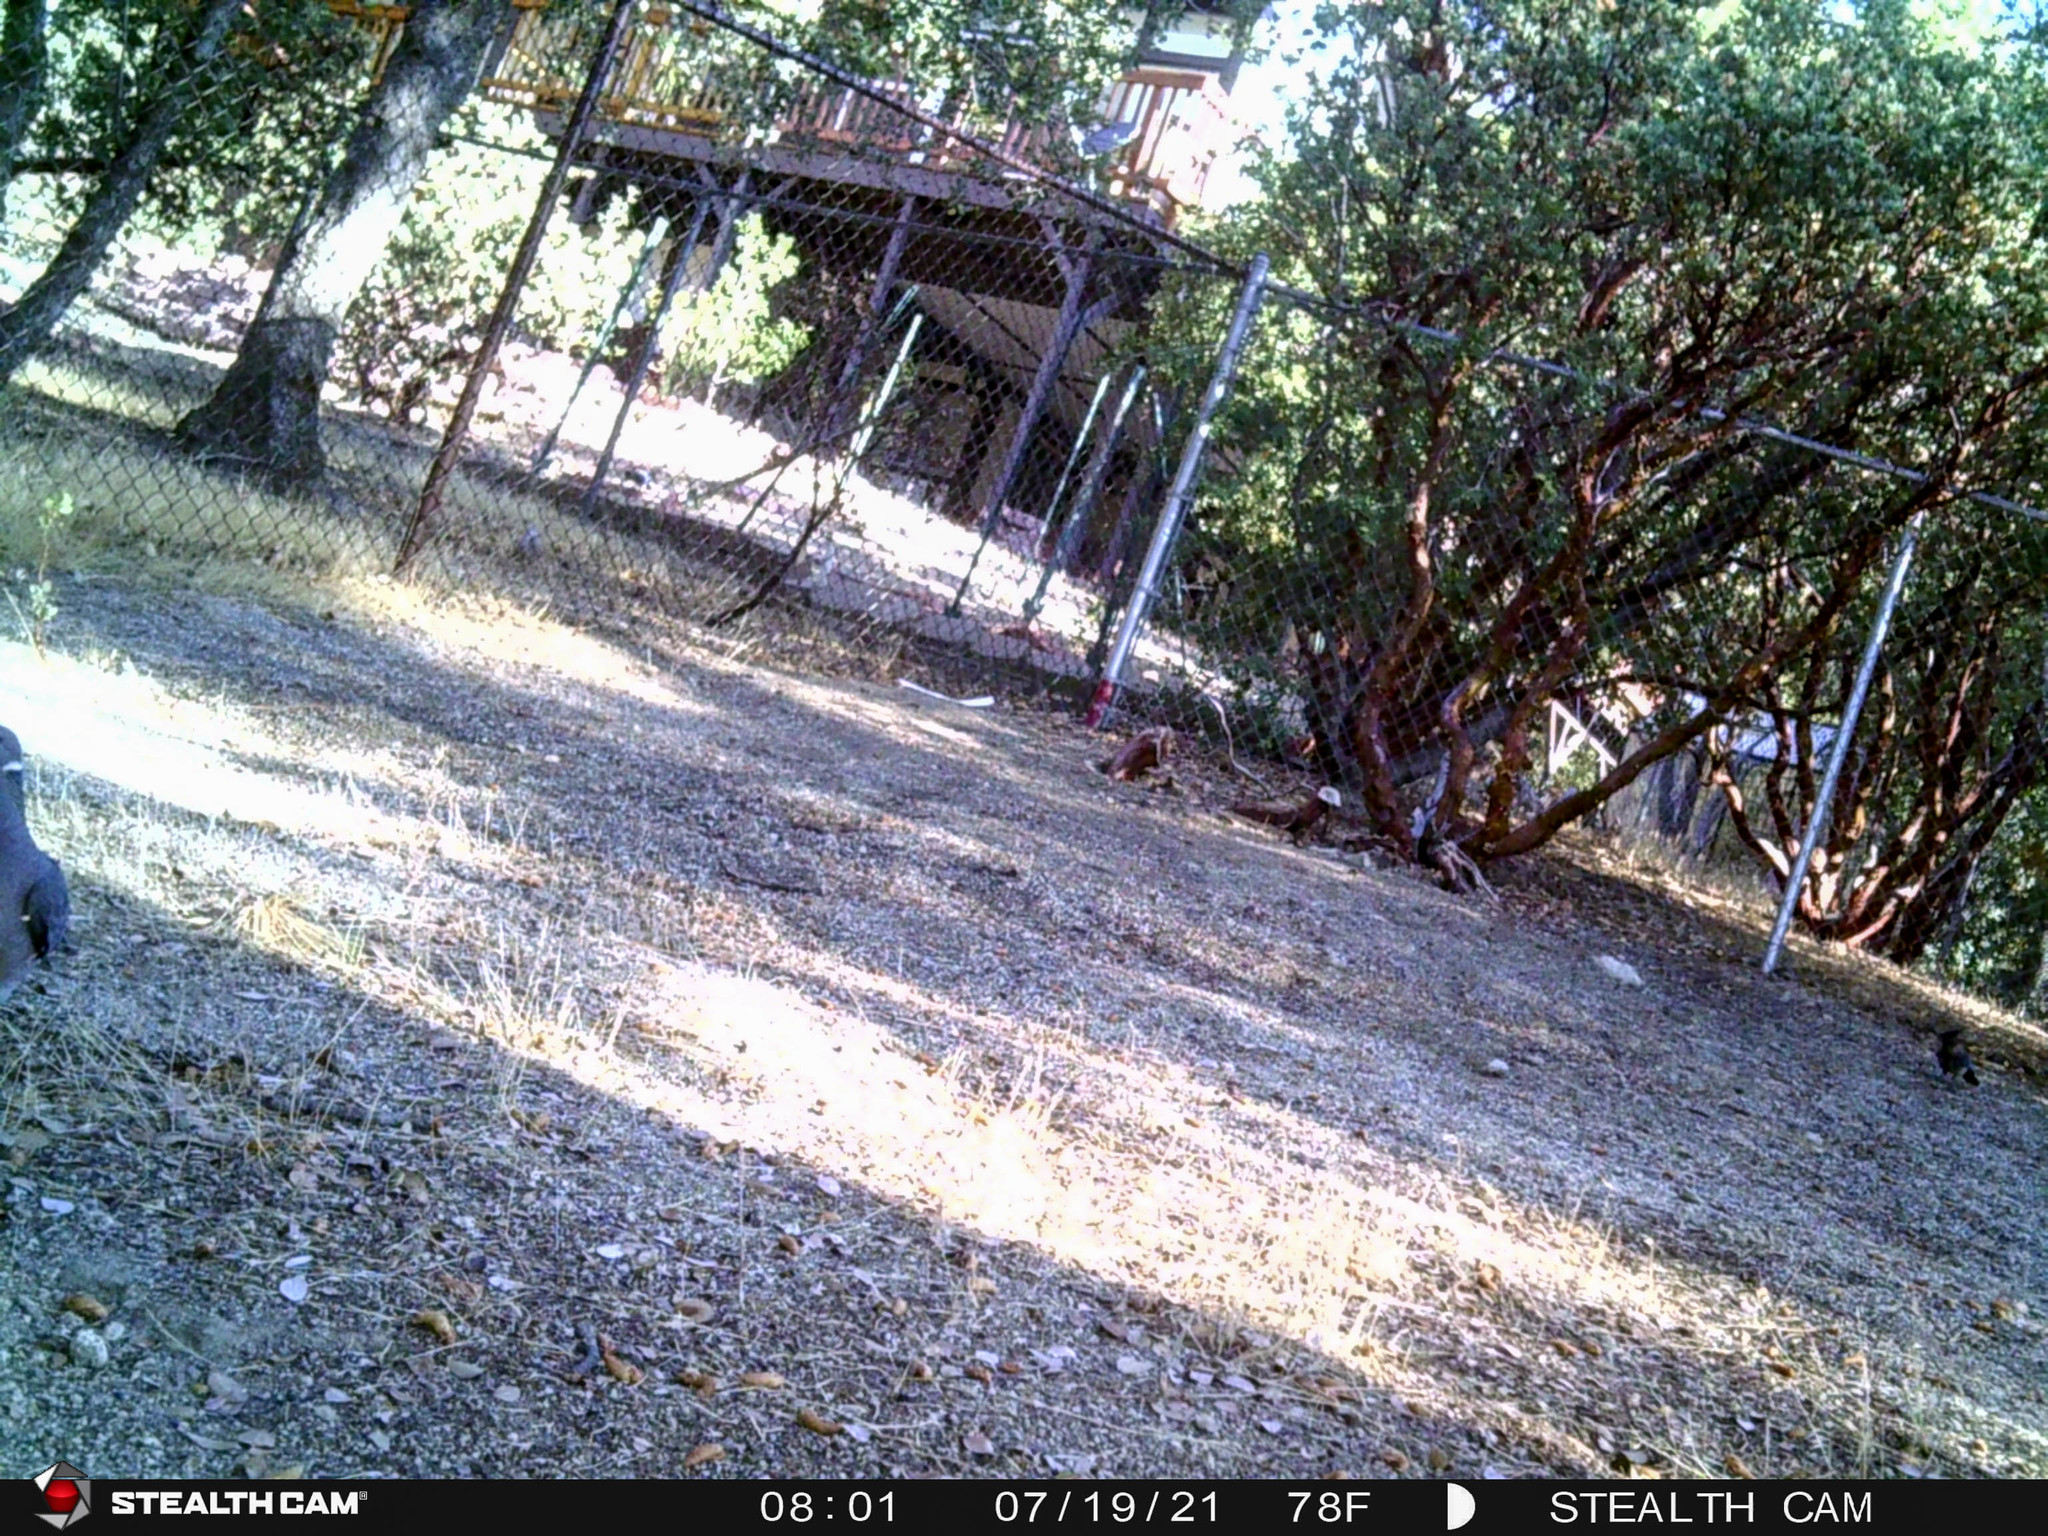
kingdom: Animalia
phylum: Chordata
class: Aves
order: Columbiformes
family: Columbidae
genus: Patagioenas
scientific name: Patagioenas fasciata
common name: Band-tailed pigeon
